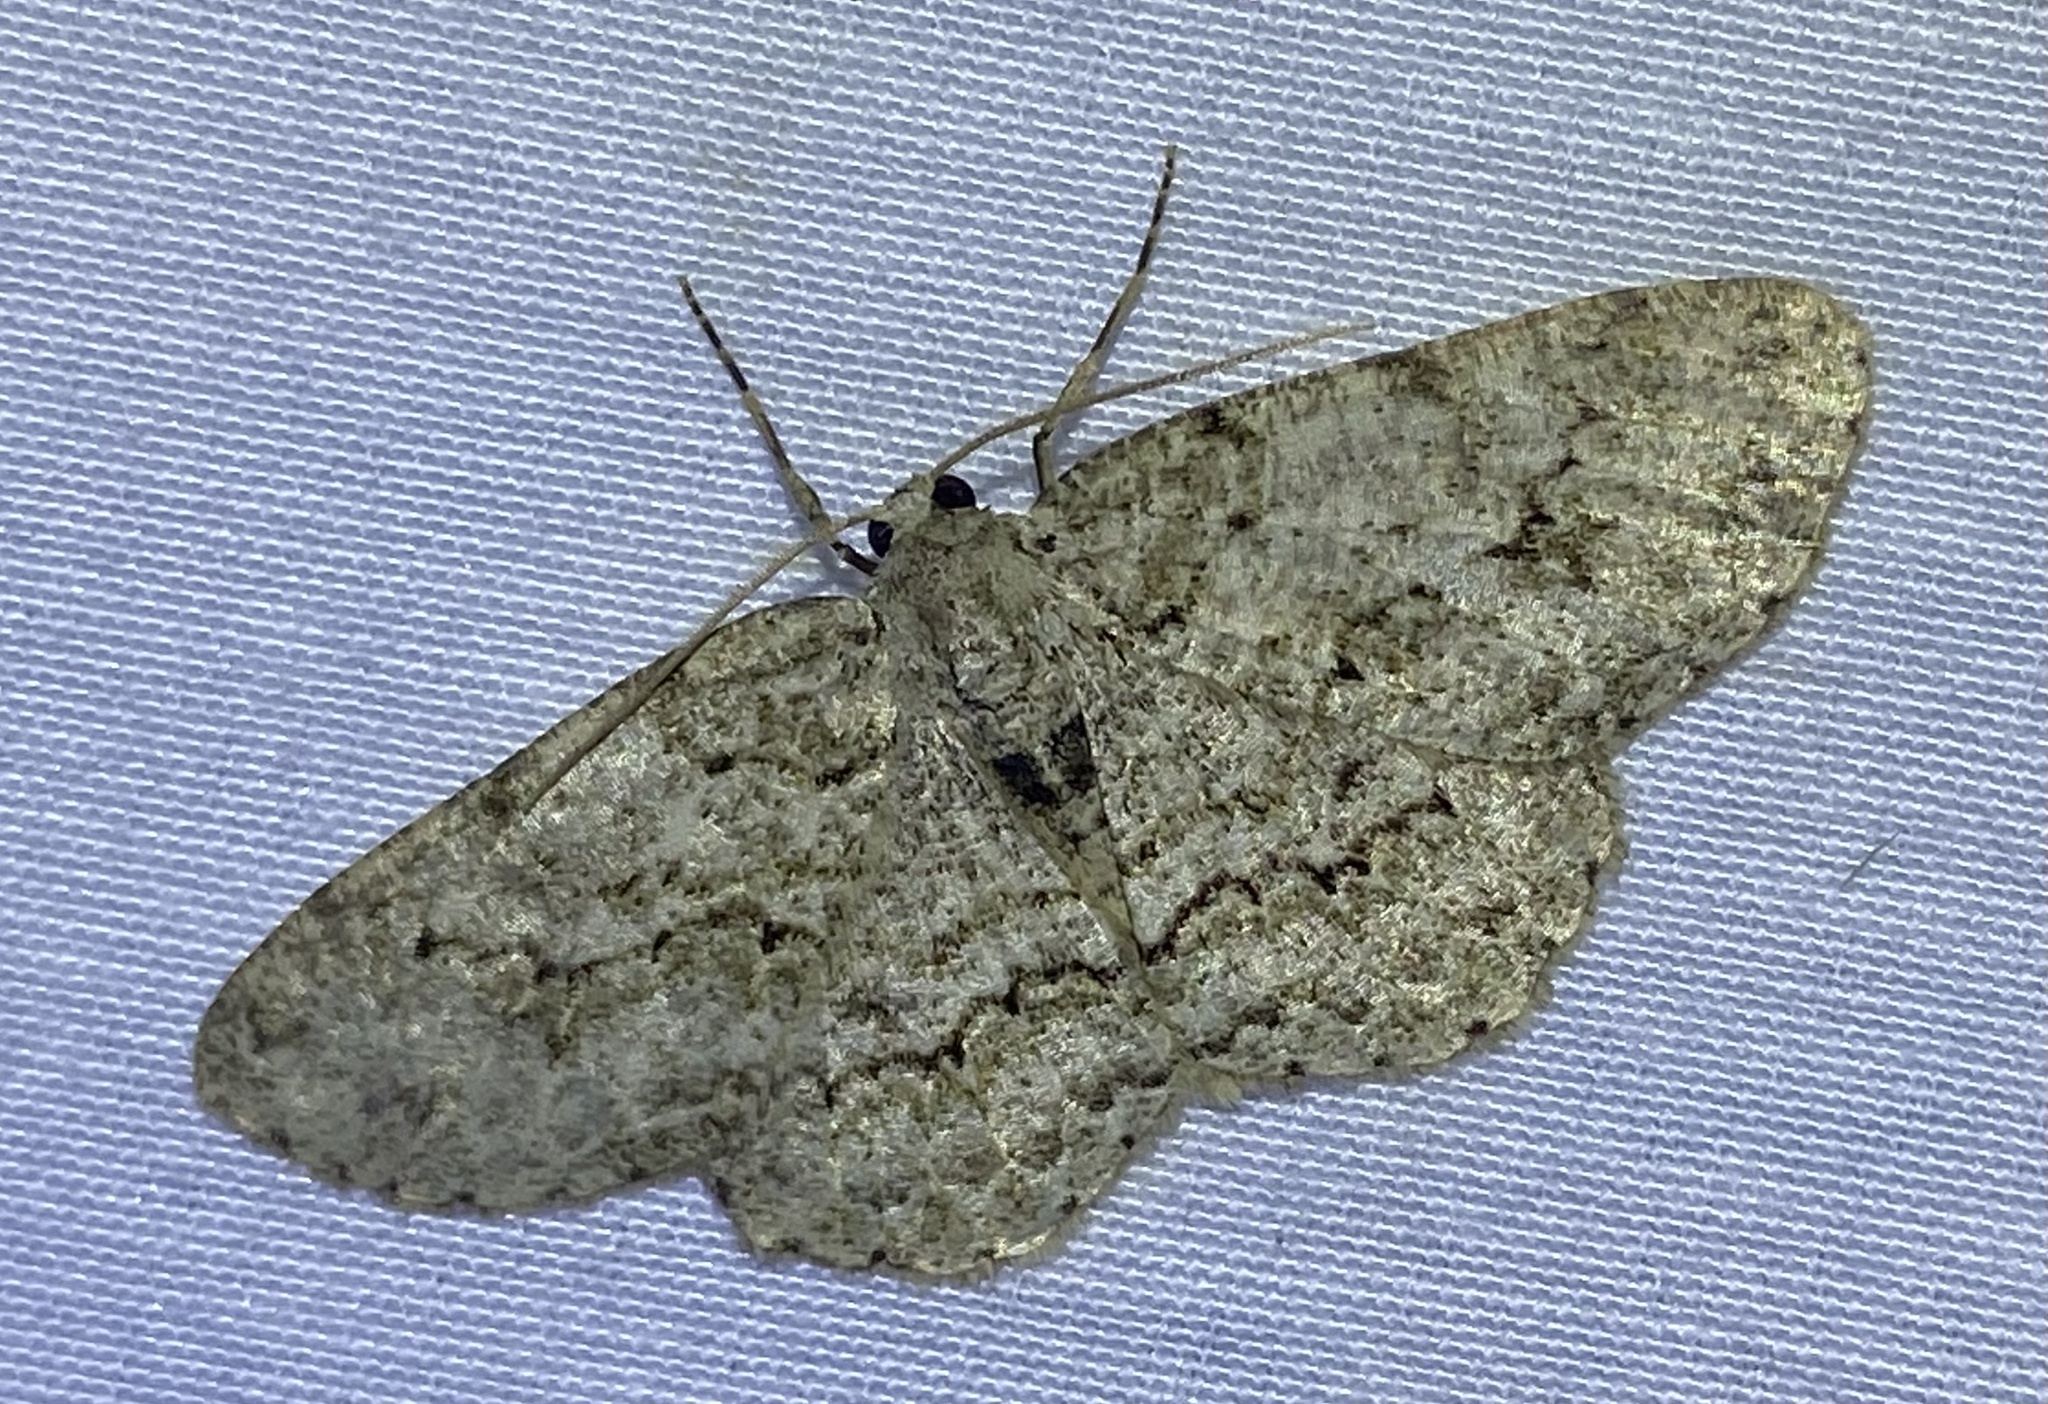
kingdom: Animalia
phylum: Arthropoda
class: Insecta
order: Lepidoptera
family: Geometridae
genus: Ectropis
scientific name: Ectropis crepuscularia
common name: Engrailed
